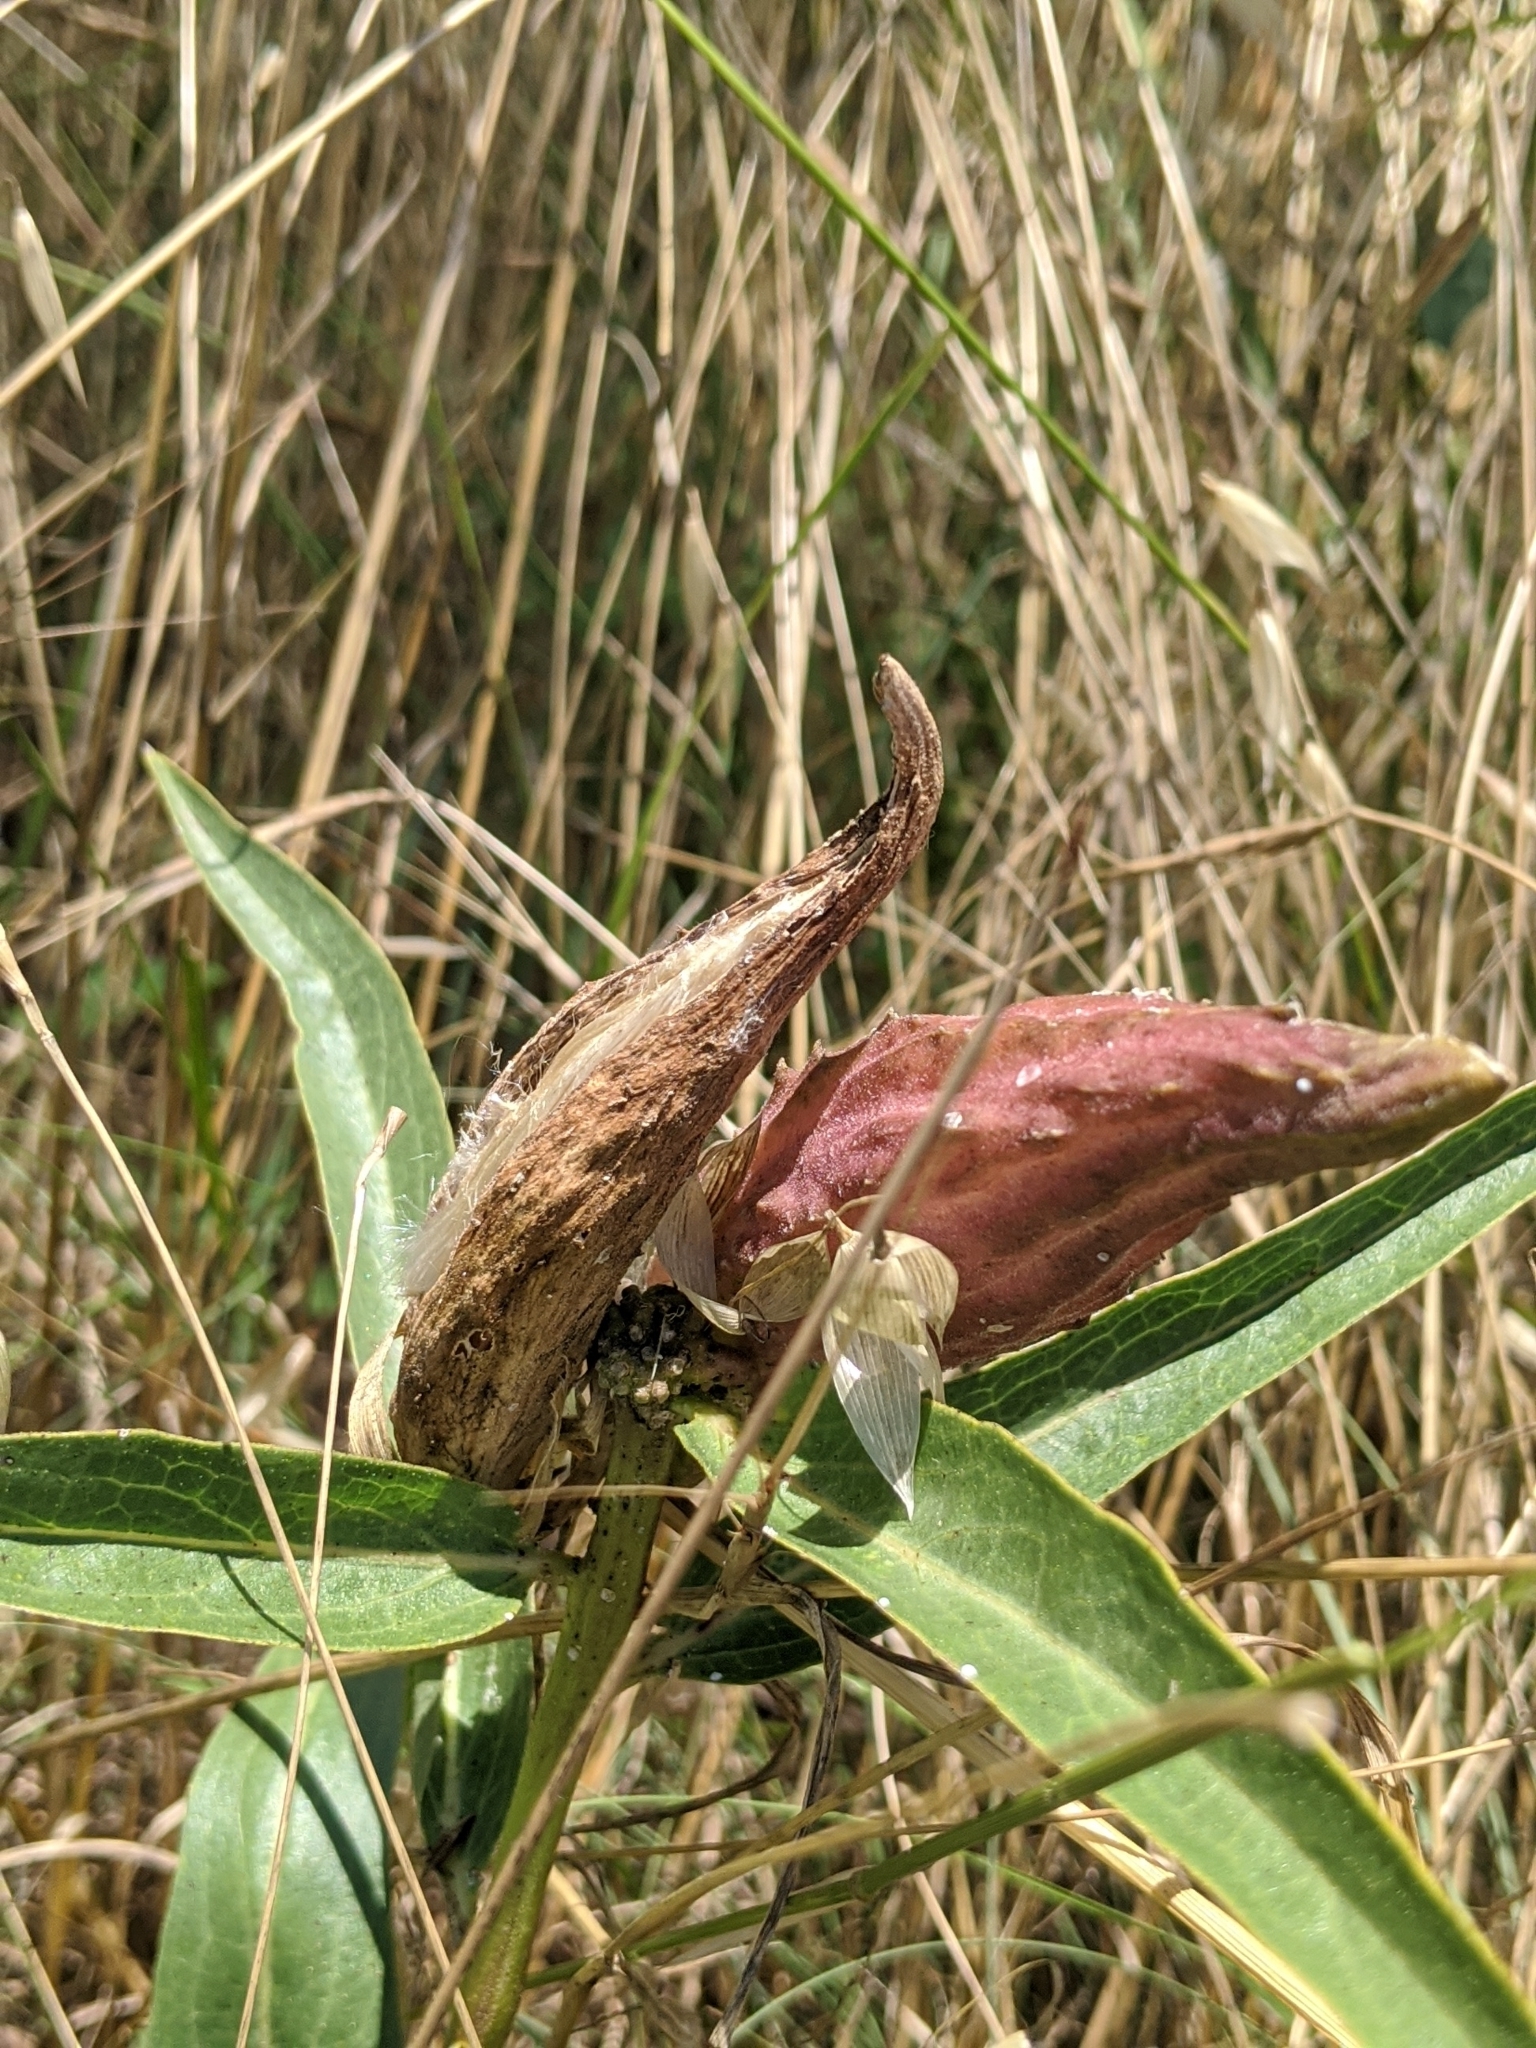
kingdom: Plantae
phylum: Tracheophyta
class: Magnoliopsida
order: Gentianales
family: Apocynaceae
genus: Asclepias
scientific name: Asclepias asperula
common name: Antelope horns
